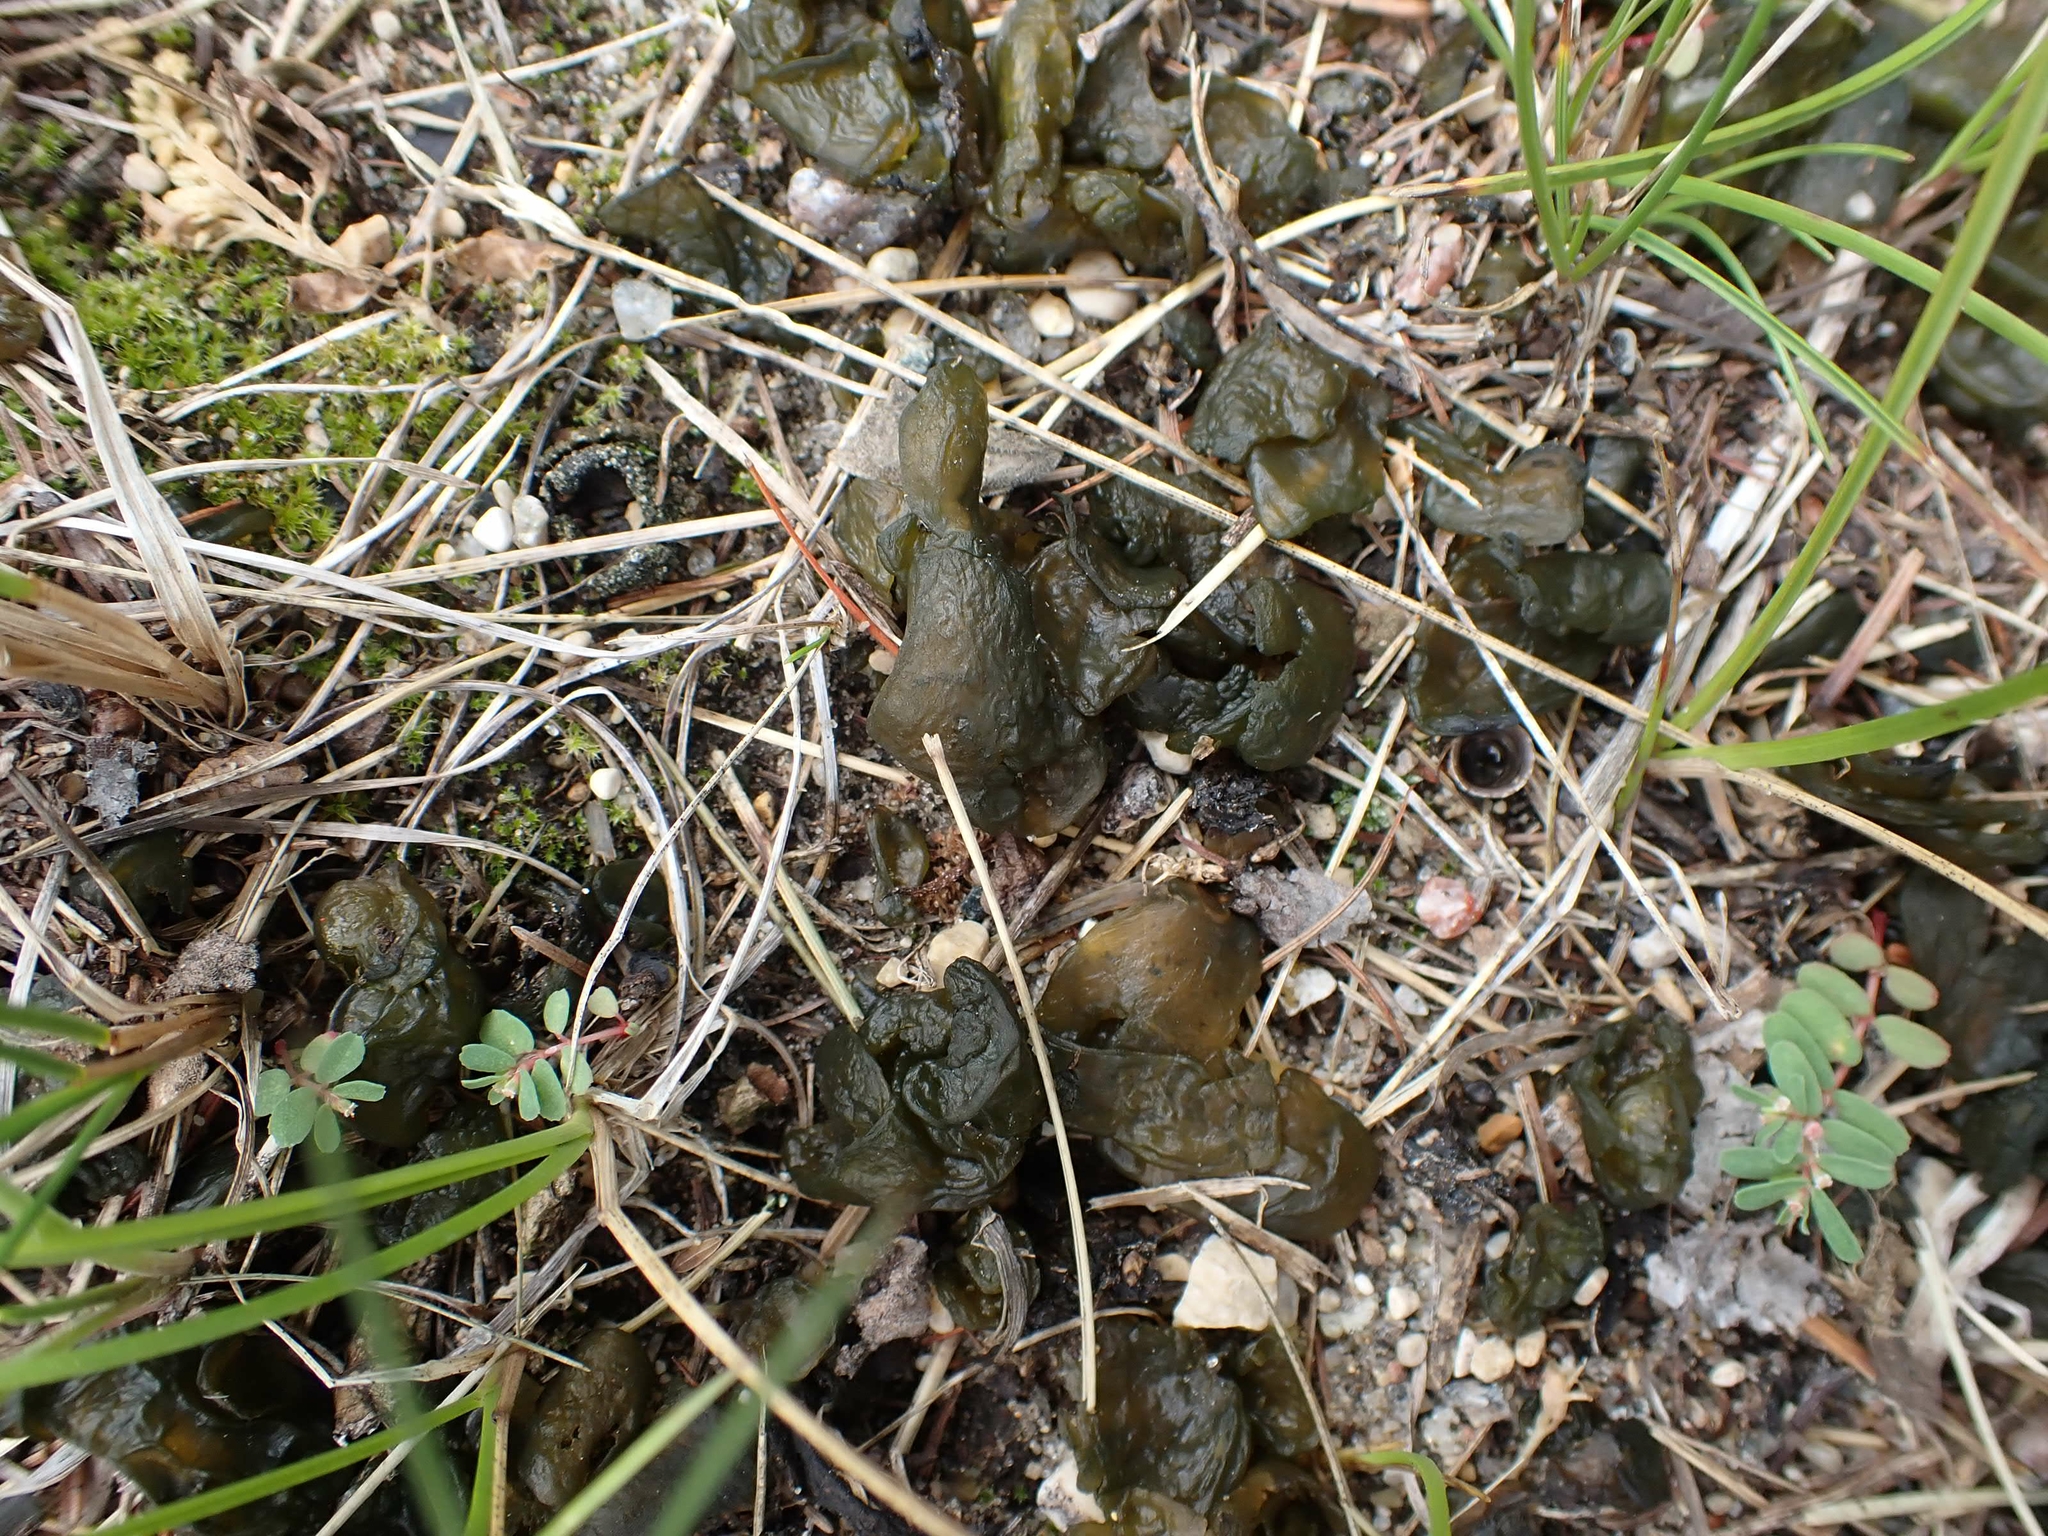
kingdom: Bacteria
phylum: Cyanobacteria
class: Cyanobacteriia
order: Cyanobacteriales
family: Nostocaceae
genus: Nostoc
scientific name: Nostoc commune
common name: Star jelly
